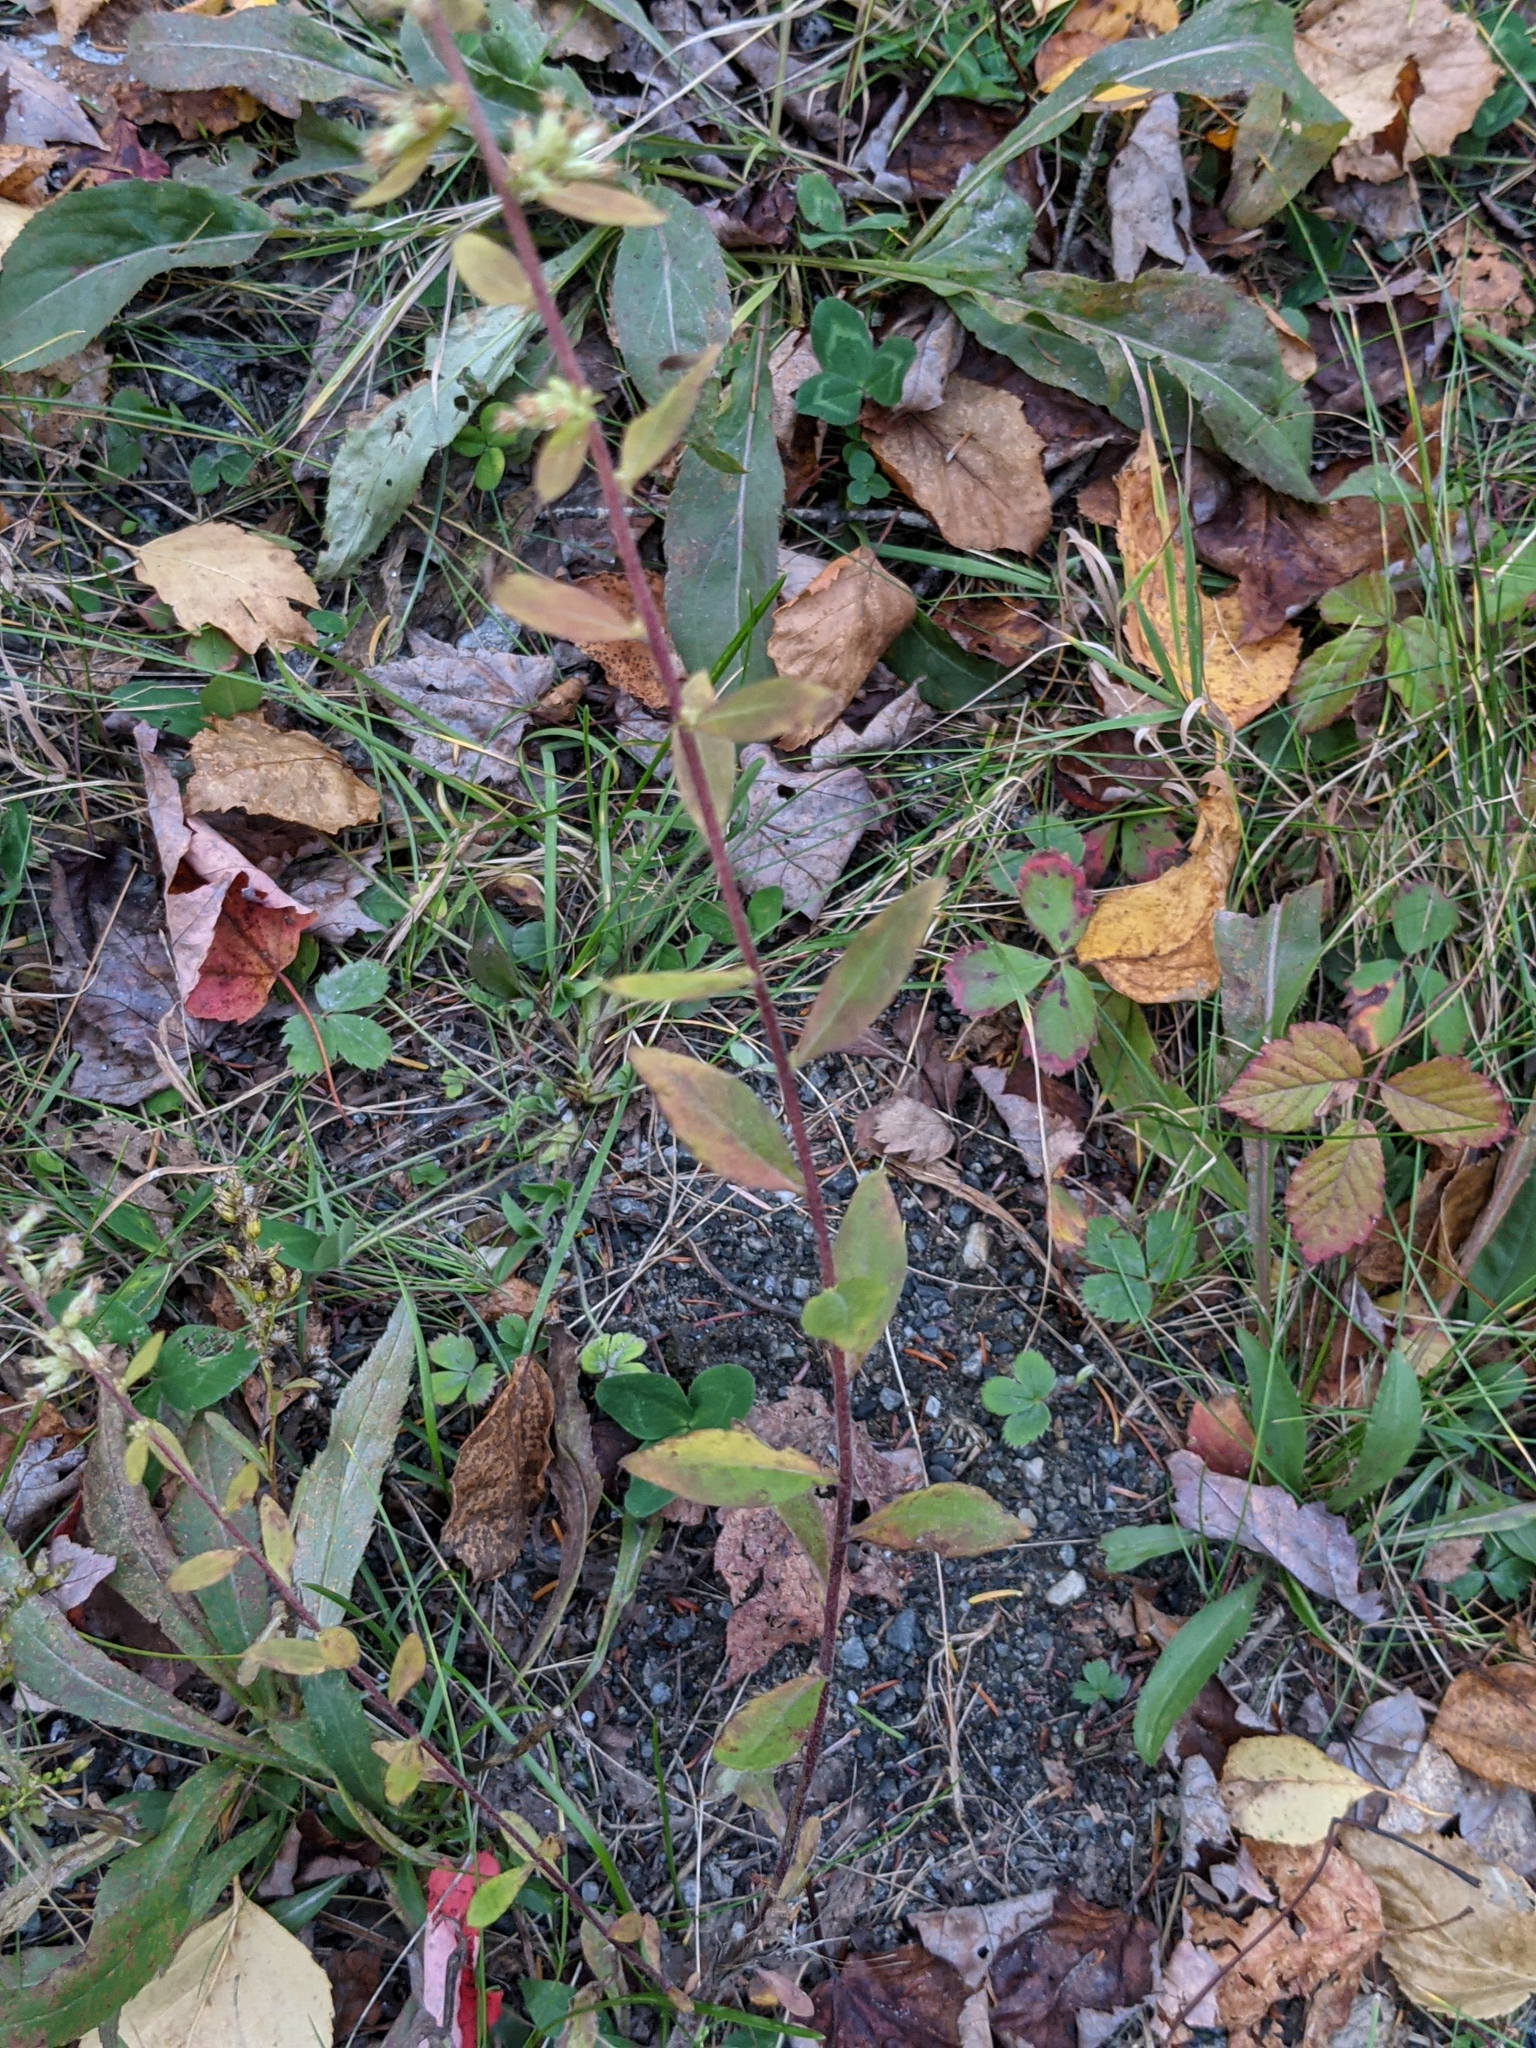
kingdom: Plantae
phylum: Tracheophyta
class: Magnoliopsida
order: Asterales
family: Asteraceae
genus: Solidago
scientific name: Solidago bicolor
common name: Silverrod
